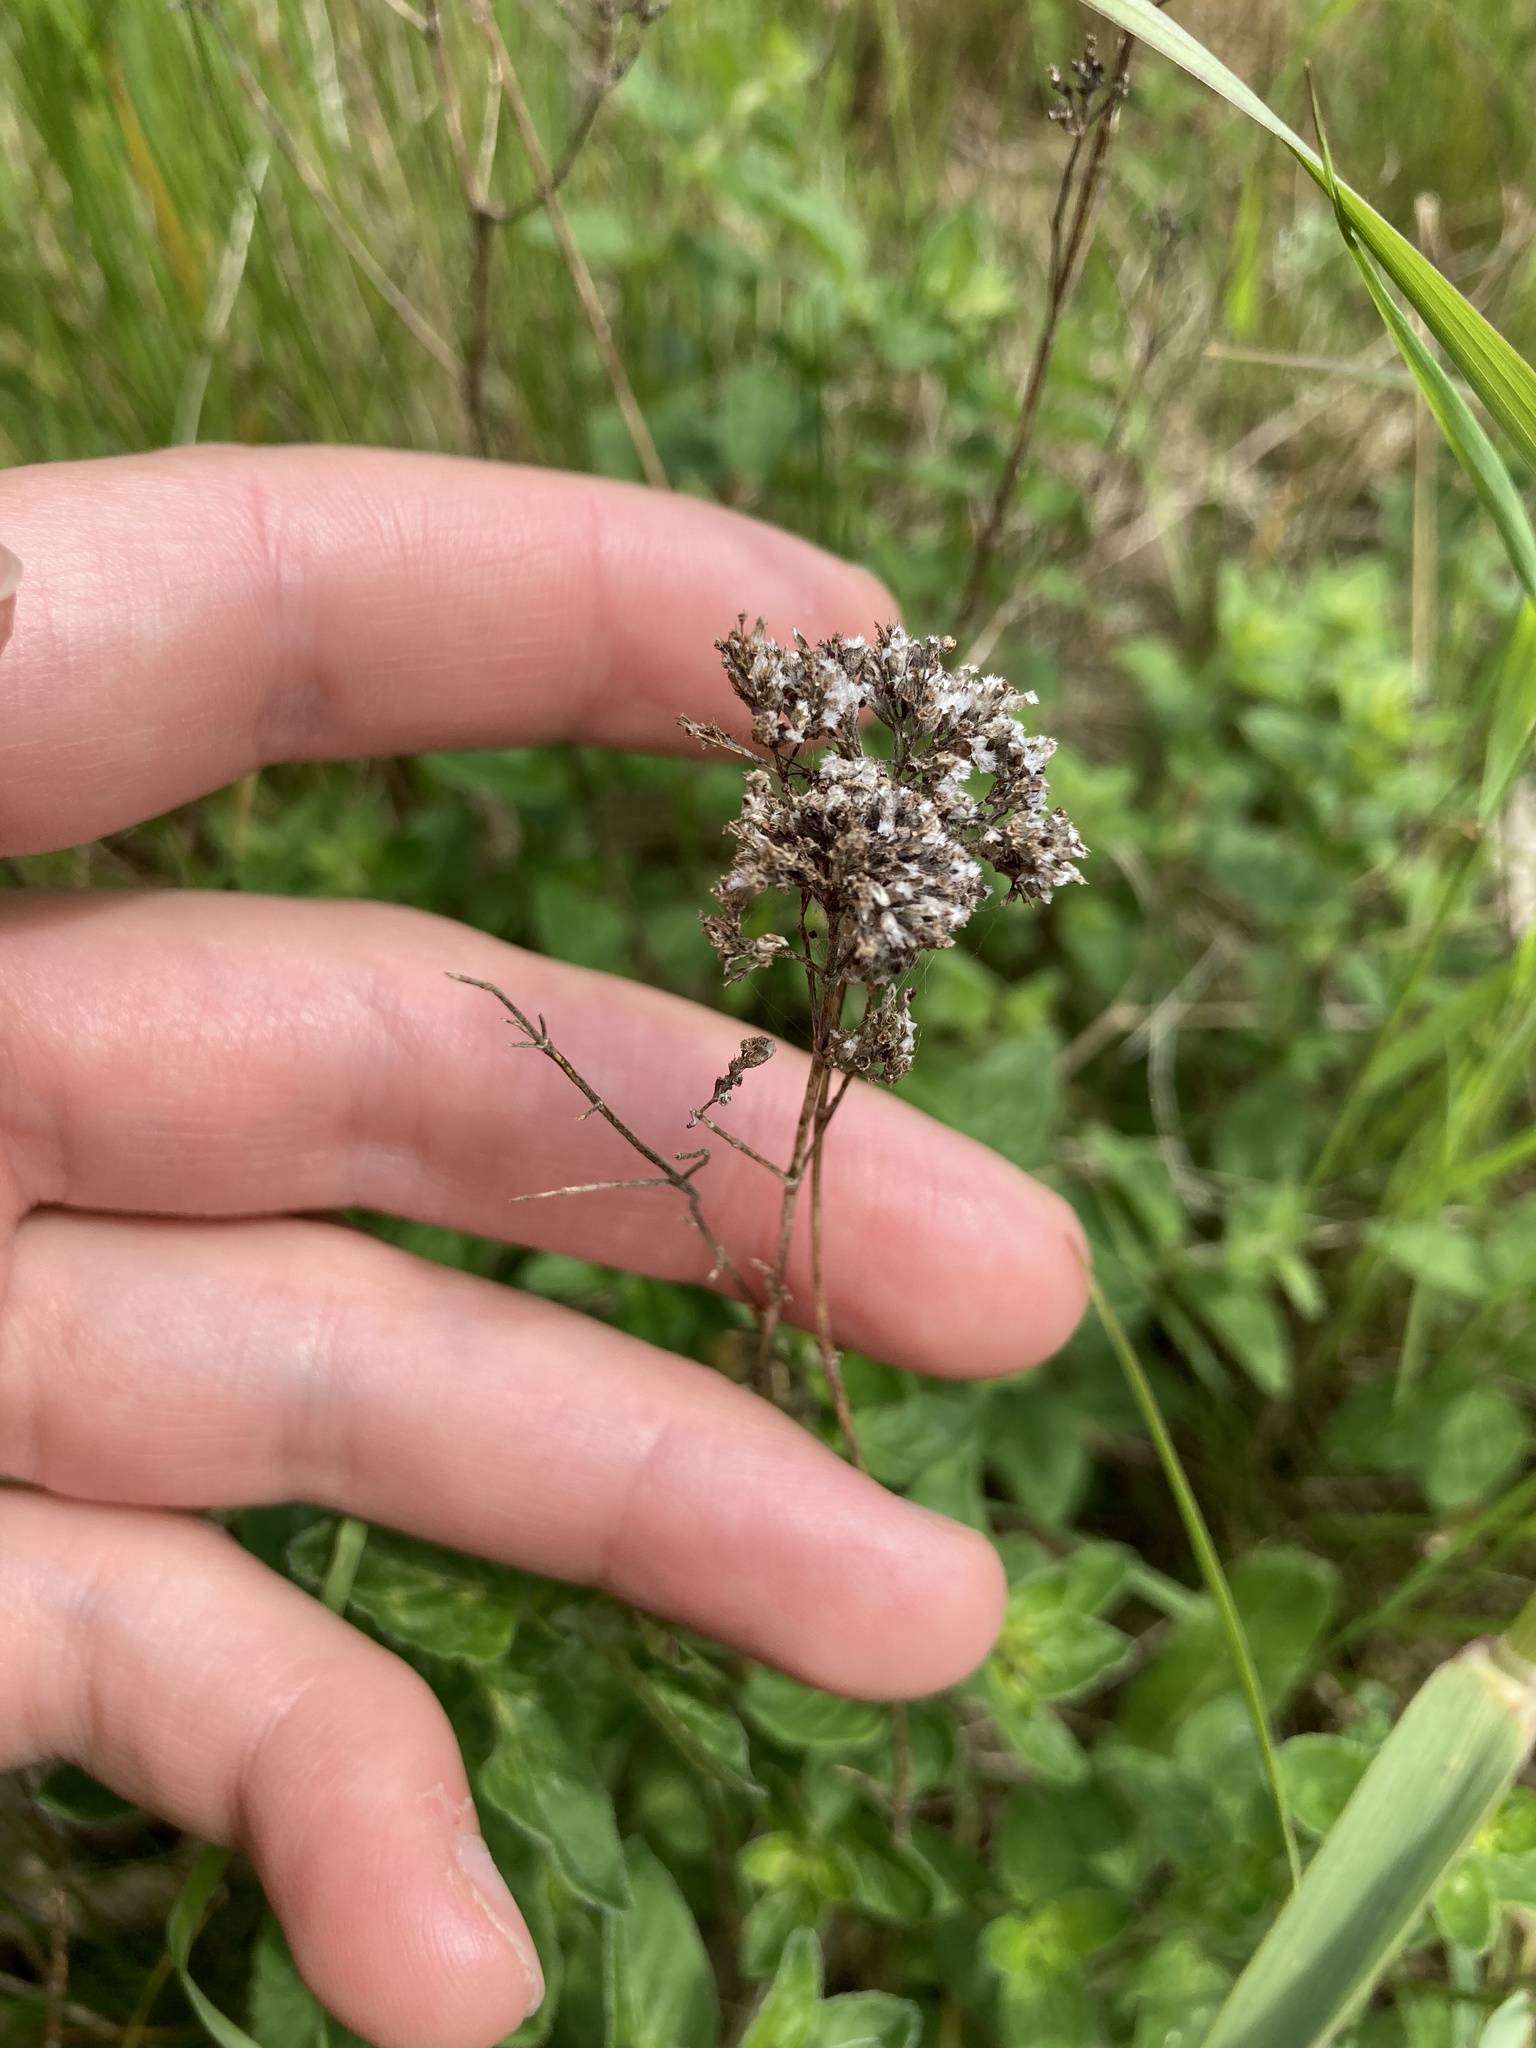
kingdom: Plantae
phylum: Tracheophyta
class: Magnoliopsida
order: Lamiales
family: Lamiaceae
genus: Origanum
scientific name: Origanum vulgare
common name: Wild marjoram
